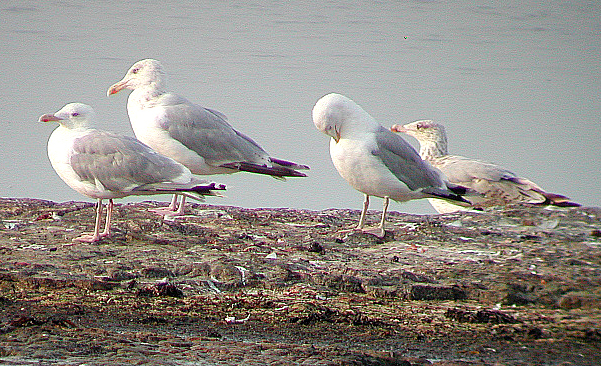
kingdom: Animalia
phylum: Chordata
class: Aves
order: Charadriiformes
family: Laridae
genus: Larus
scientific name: Larus argentatus
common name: Herring gull
